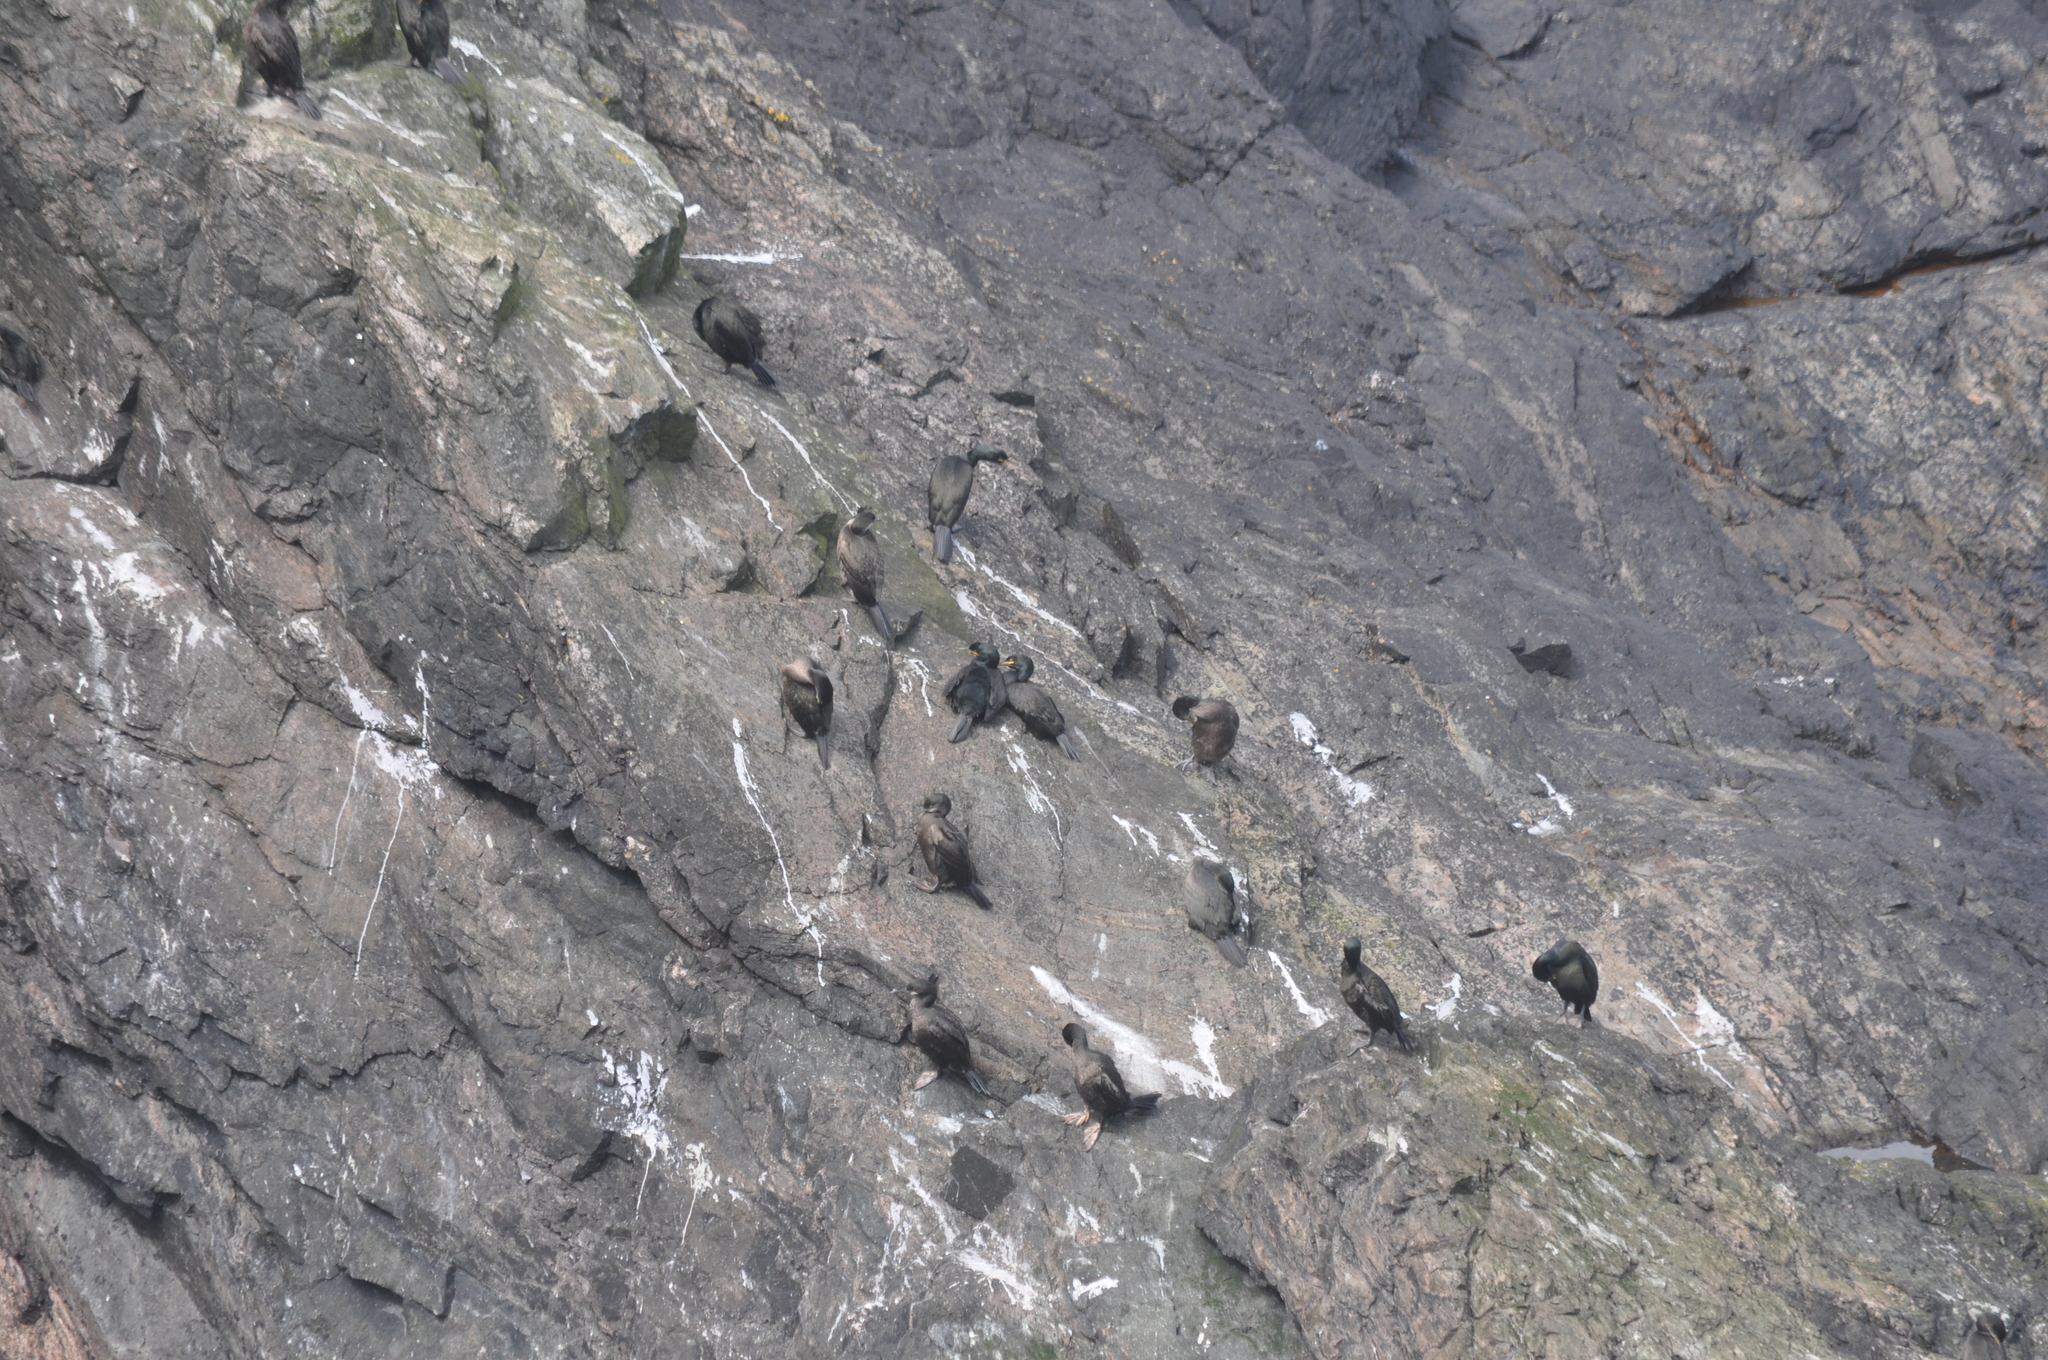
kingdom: Animalia
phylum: Chordata
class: Aves
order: Suliformes
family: Phalacrocoracidae
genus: Phalacrocorax
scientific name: Phalacrocorax aristotelis
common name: European shag
